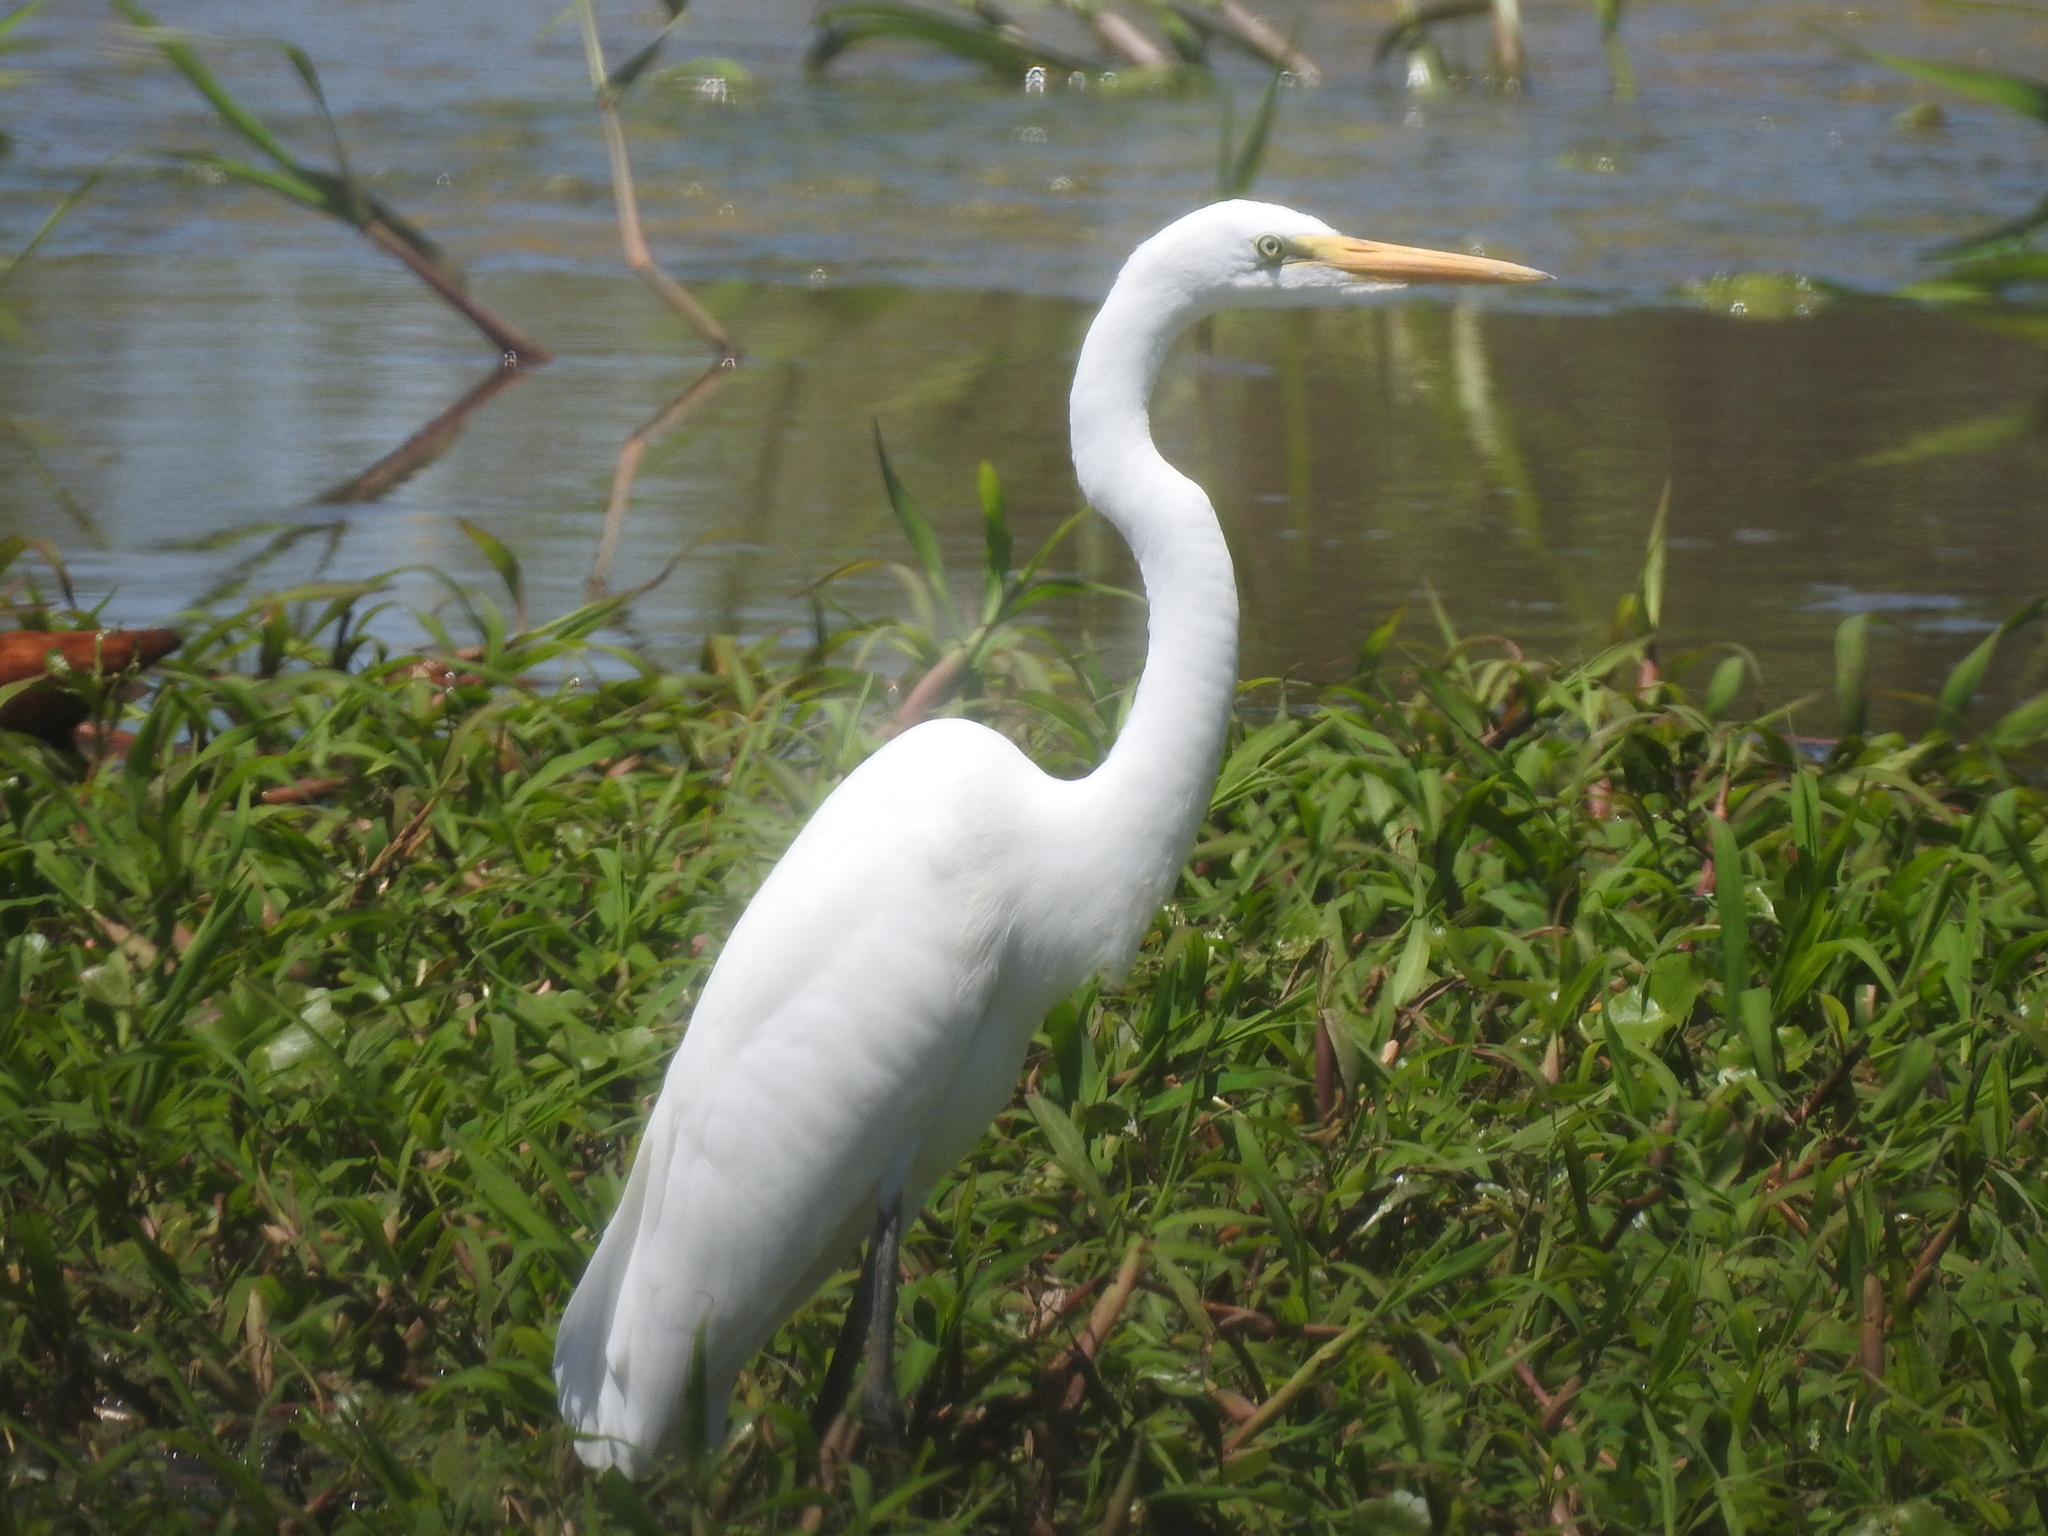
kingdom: Animalia
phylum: Chordata
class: Aves
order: Pelecaniformes
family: Ardeidae
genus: Ardea
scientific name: Ardea alba
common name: Great egret
